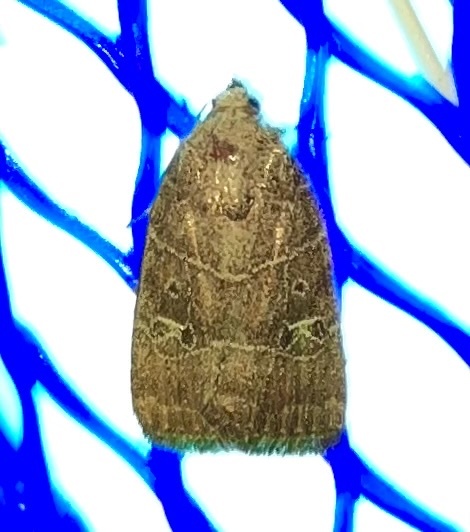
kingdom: Animalia
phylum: Arthropoda
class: Insecta
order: Lepidoptera
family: Noctuidae
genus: Elaphria
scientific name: Elaphria grata
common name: Grateful midget moth
